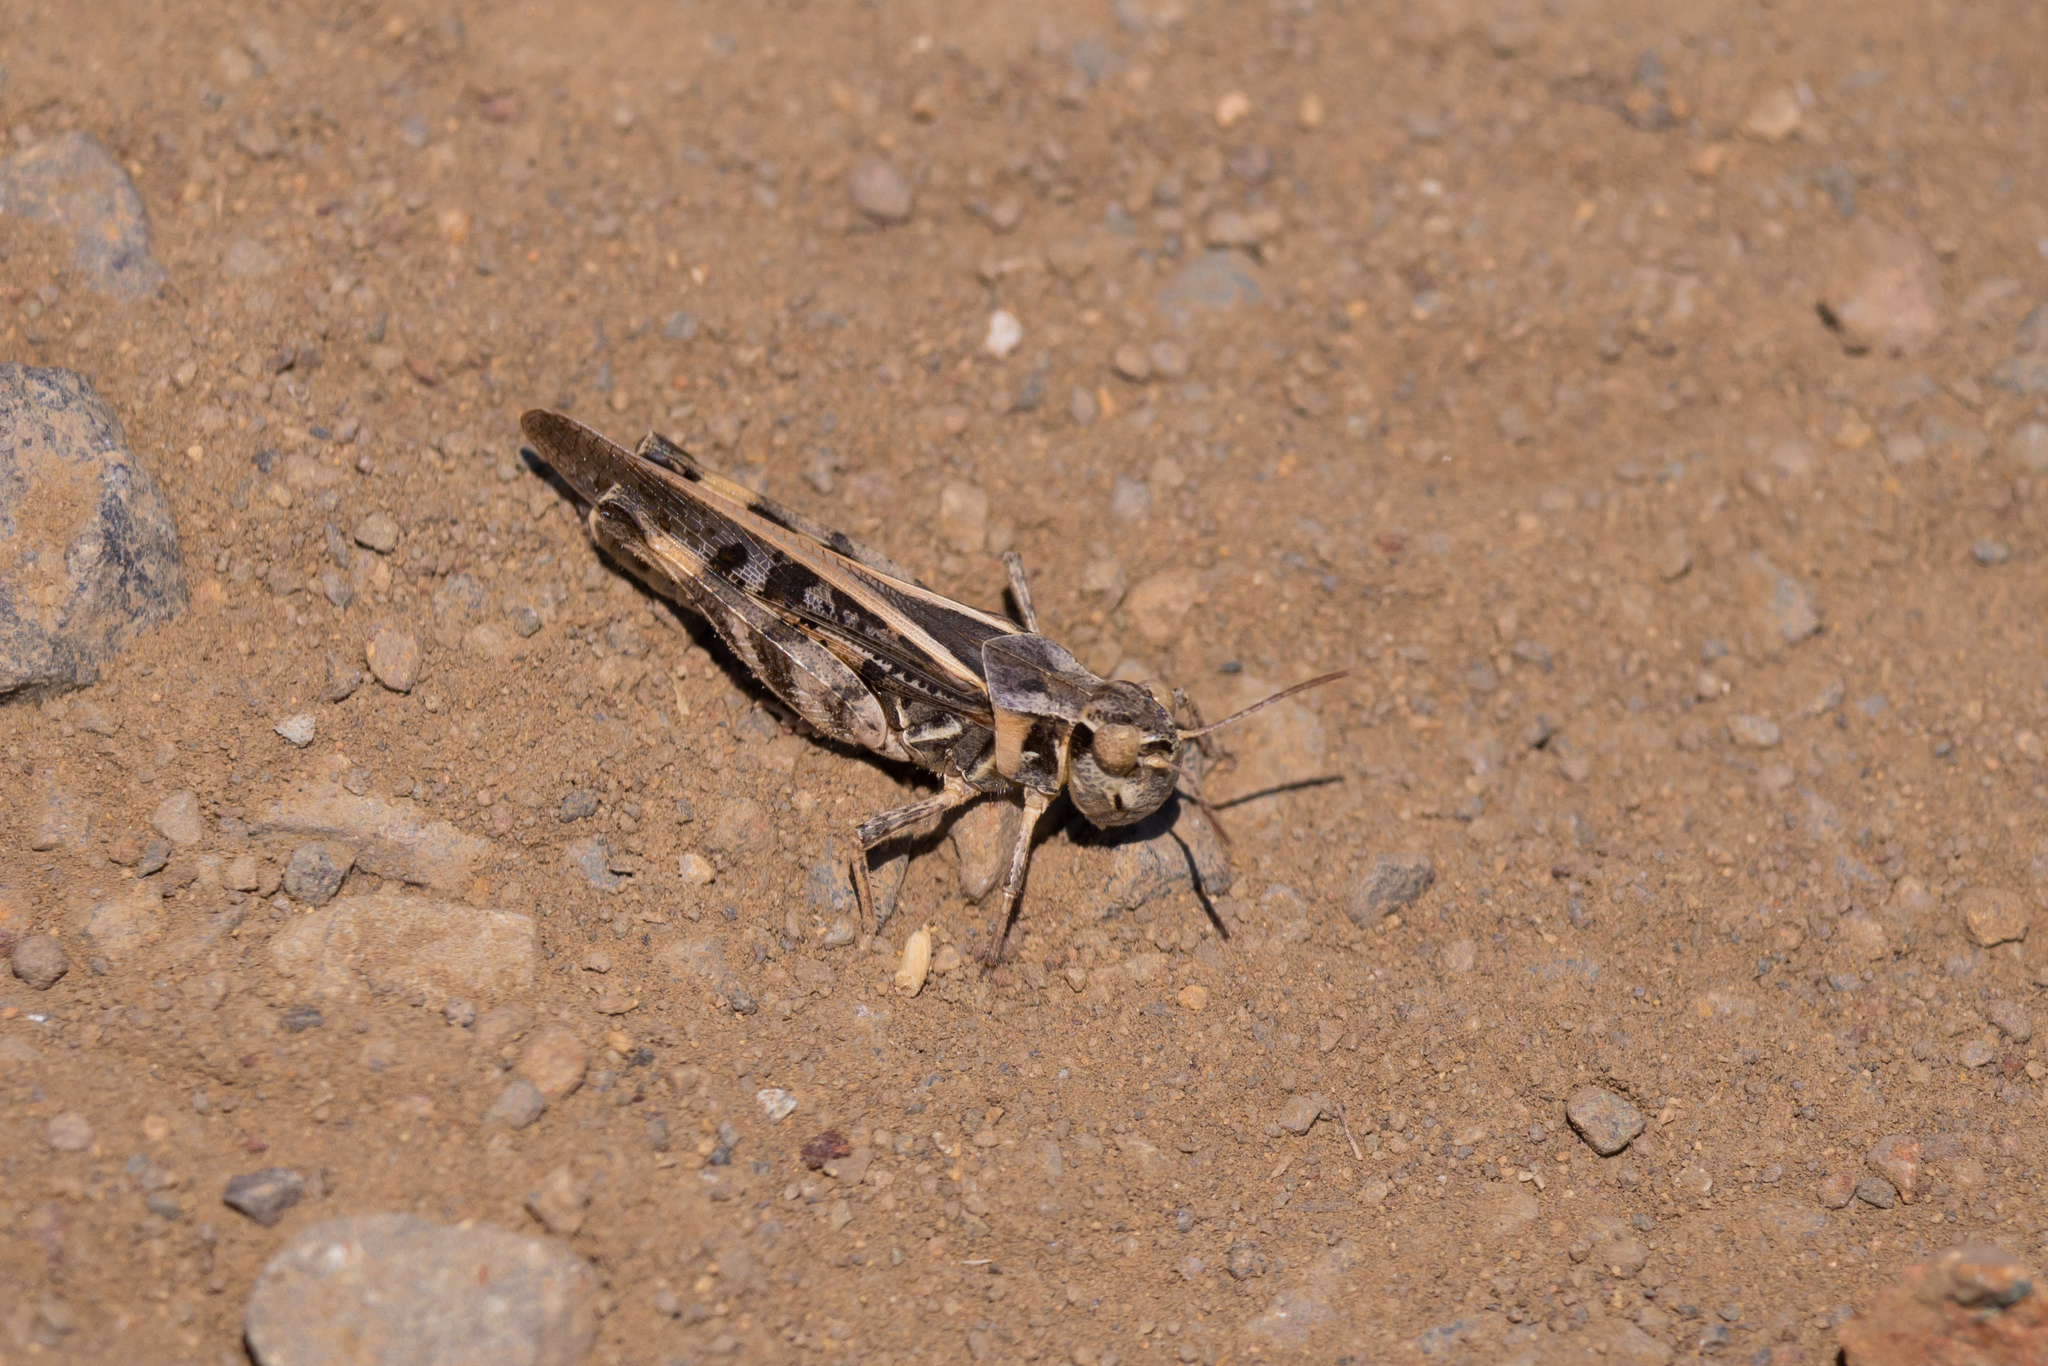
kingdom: Animalia
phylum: Arthropoda
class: Insecta
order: Orthoptera
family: Acrididae
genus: Camnula
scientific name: Camnula pellucida
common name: Clear-winged grasshopper
